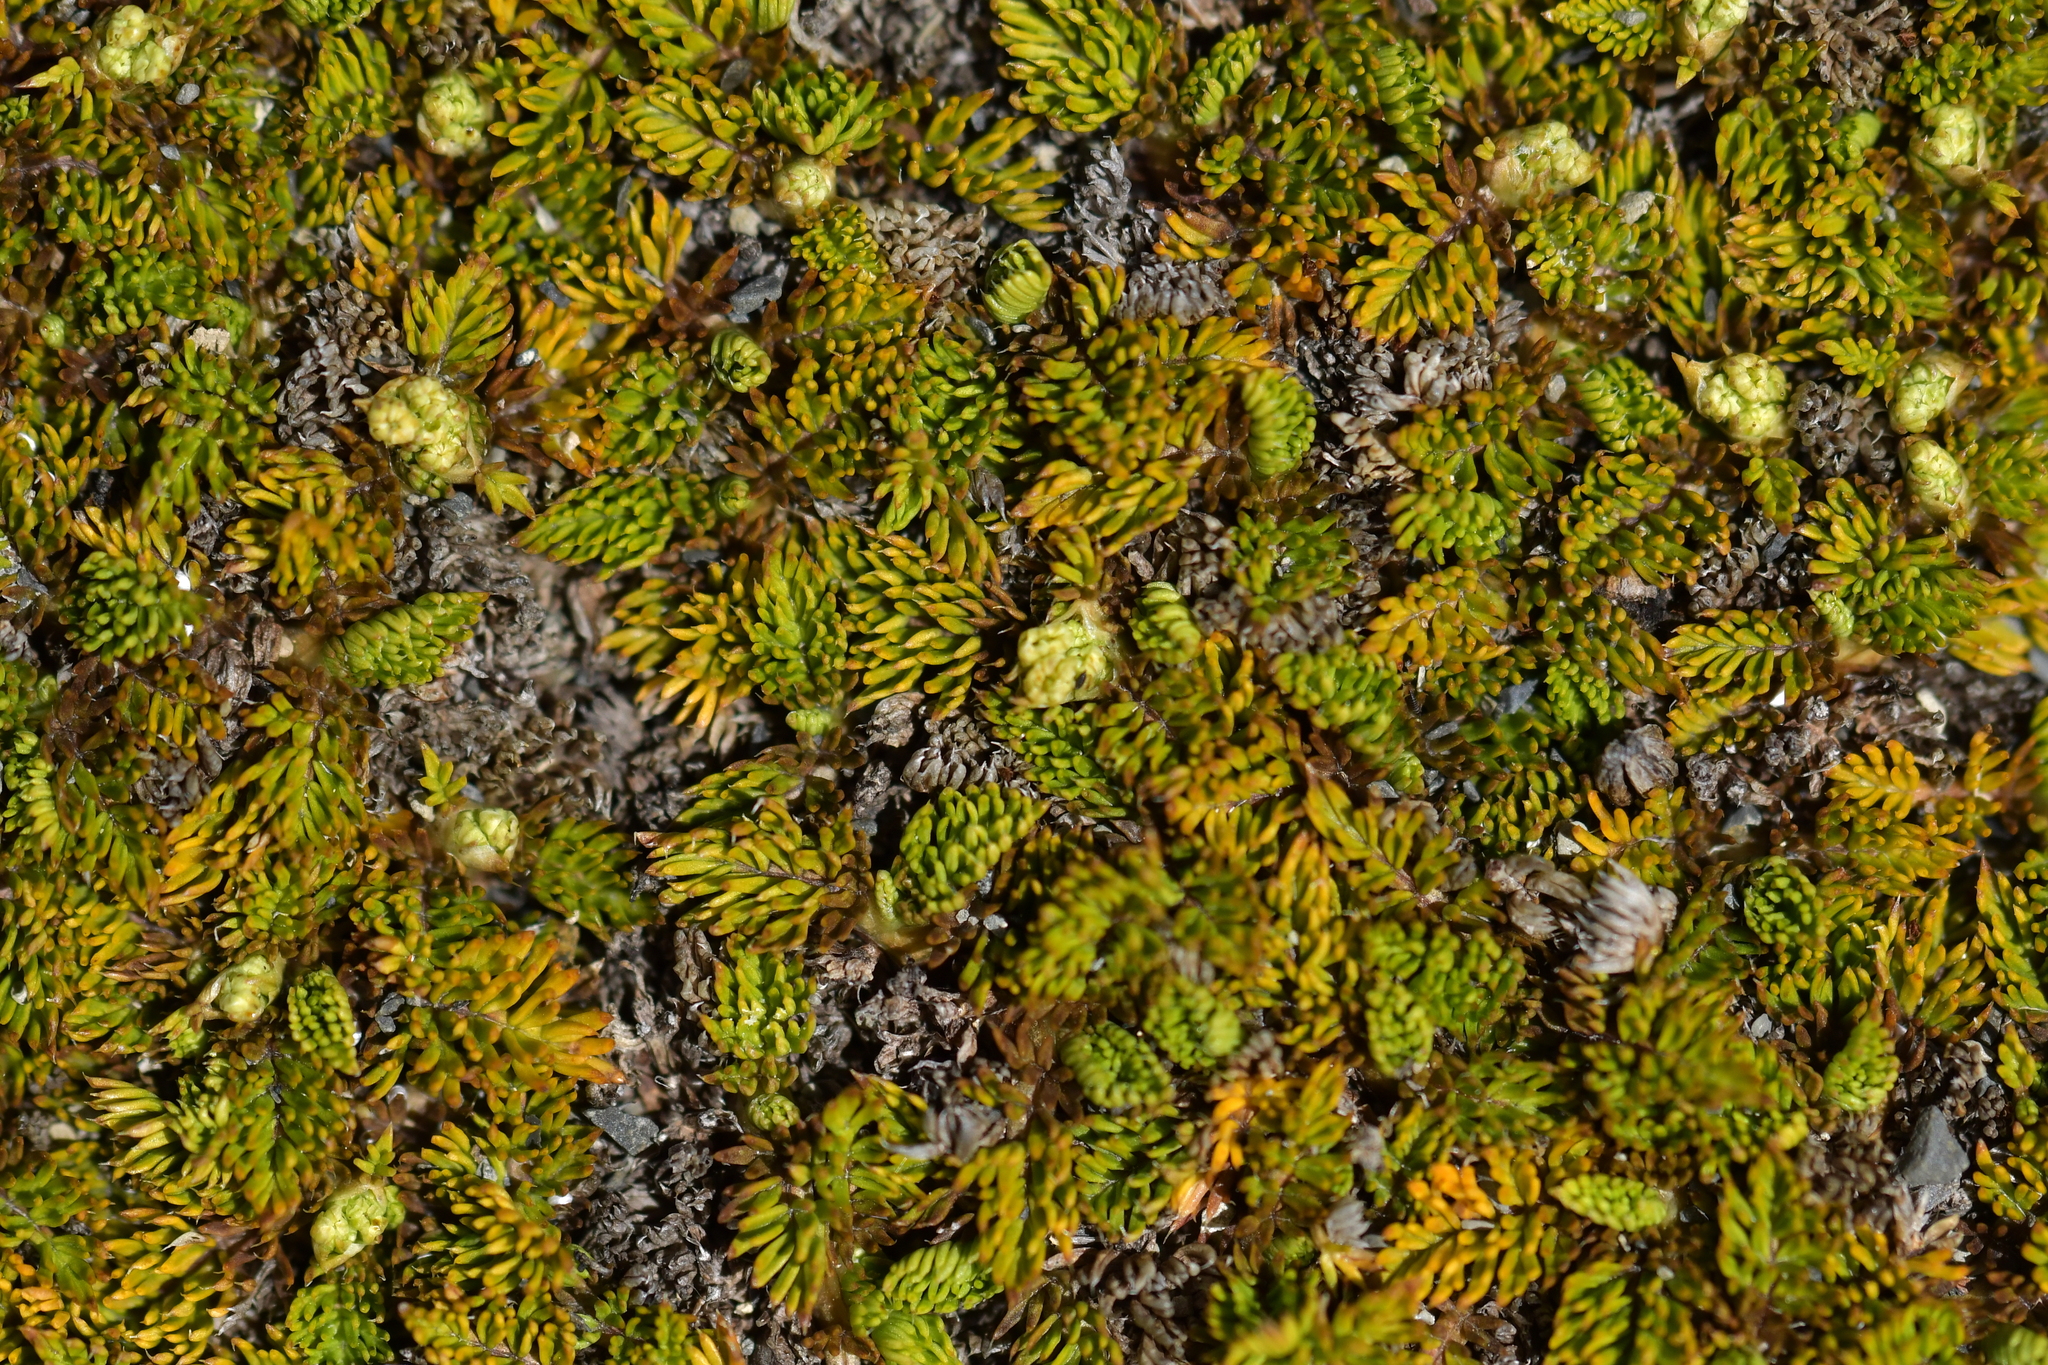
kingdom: Plantae
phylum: Tracheophyta
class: Magnoliopsida
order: Apiales
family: Apiaceae
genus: Anisotome
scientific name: Anisotome imbricata
